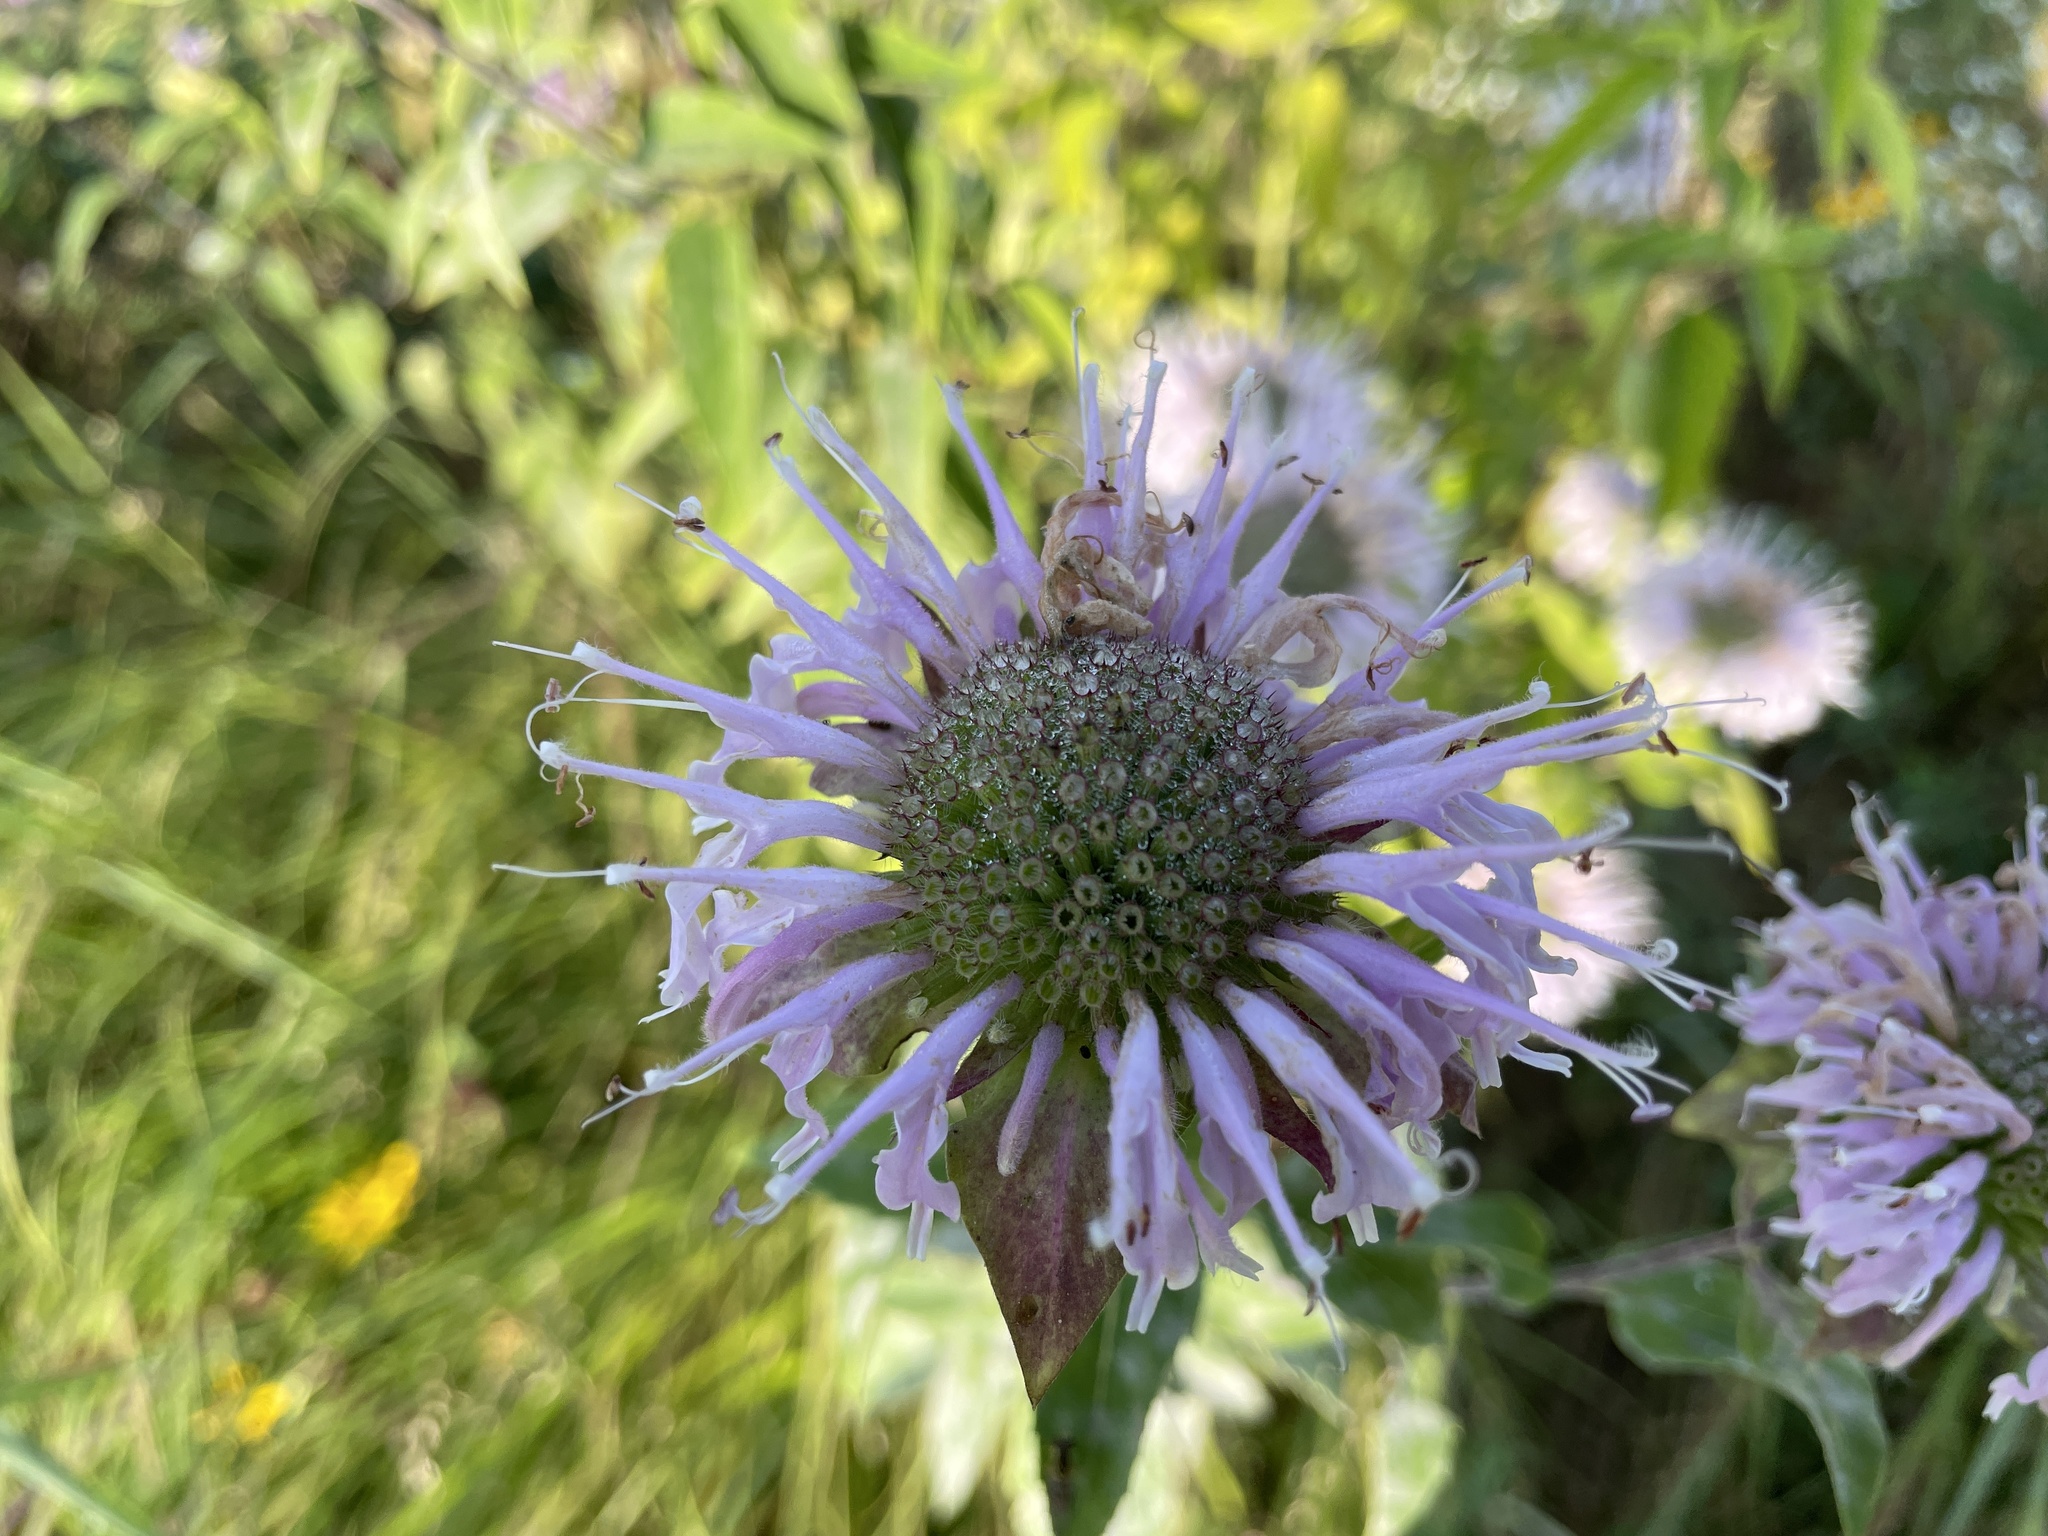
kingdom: Plantae
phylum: Tracheophyta
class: Magnoliopsida
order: Lamiales
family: Lamiaceae
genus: Monarda
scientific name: Monarda fistulosa
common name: Purple beebalm
